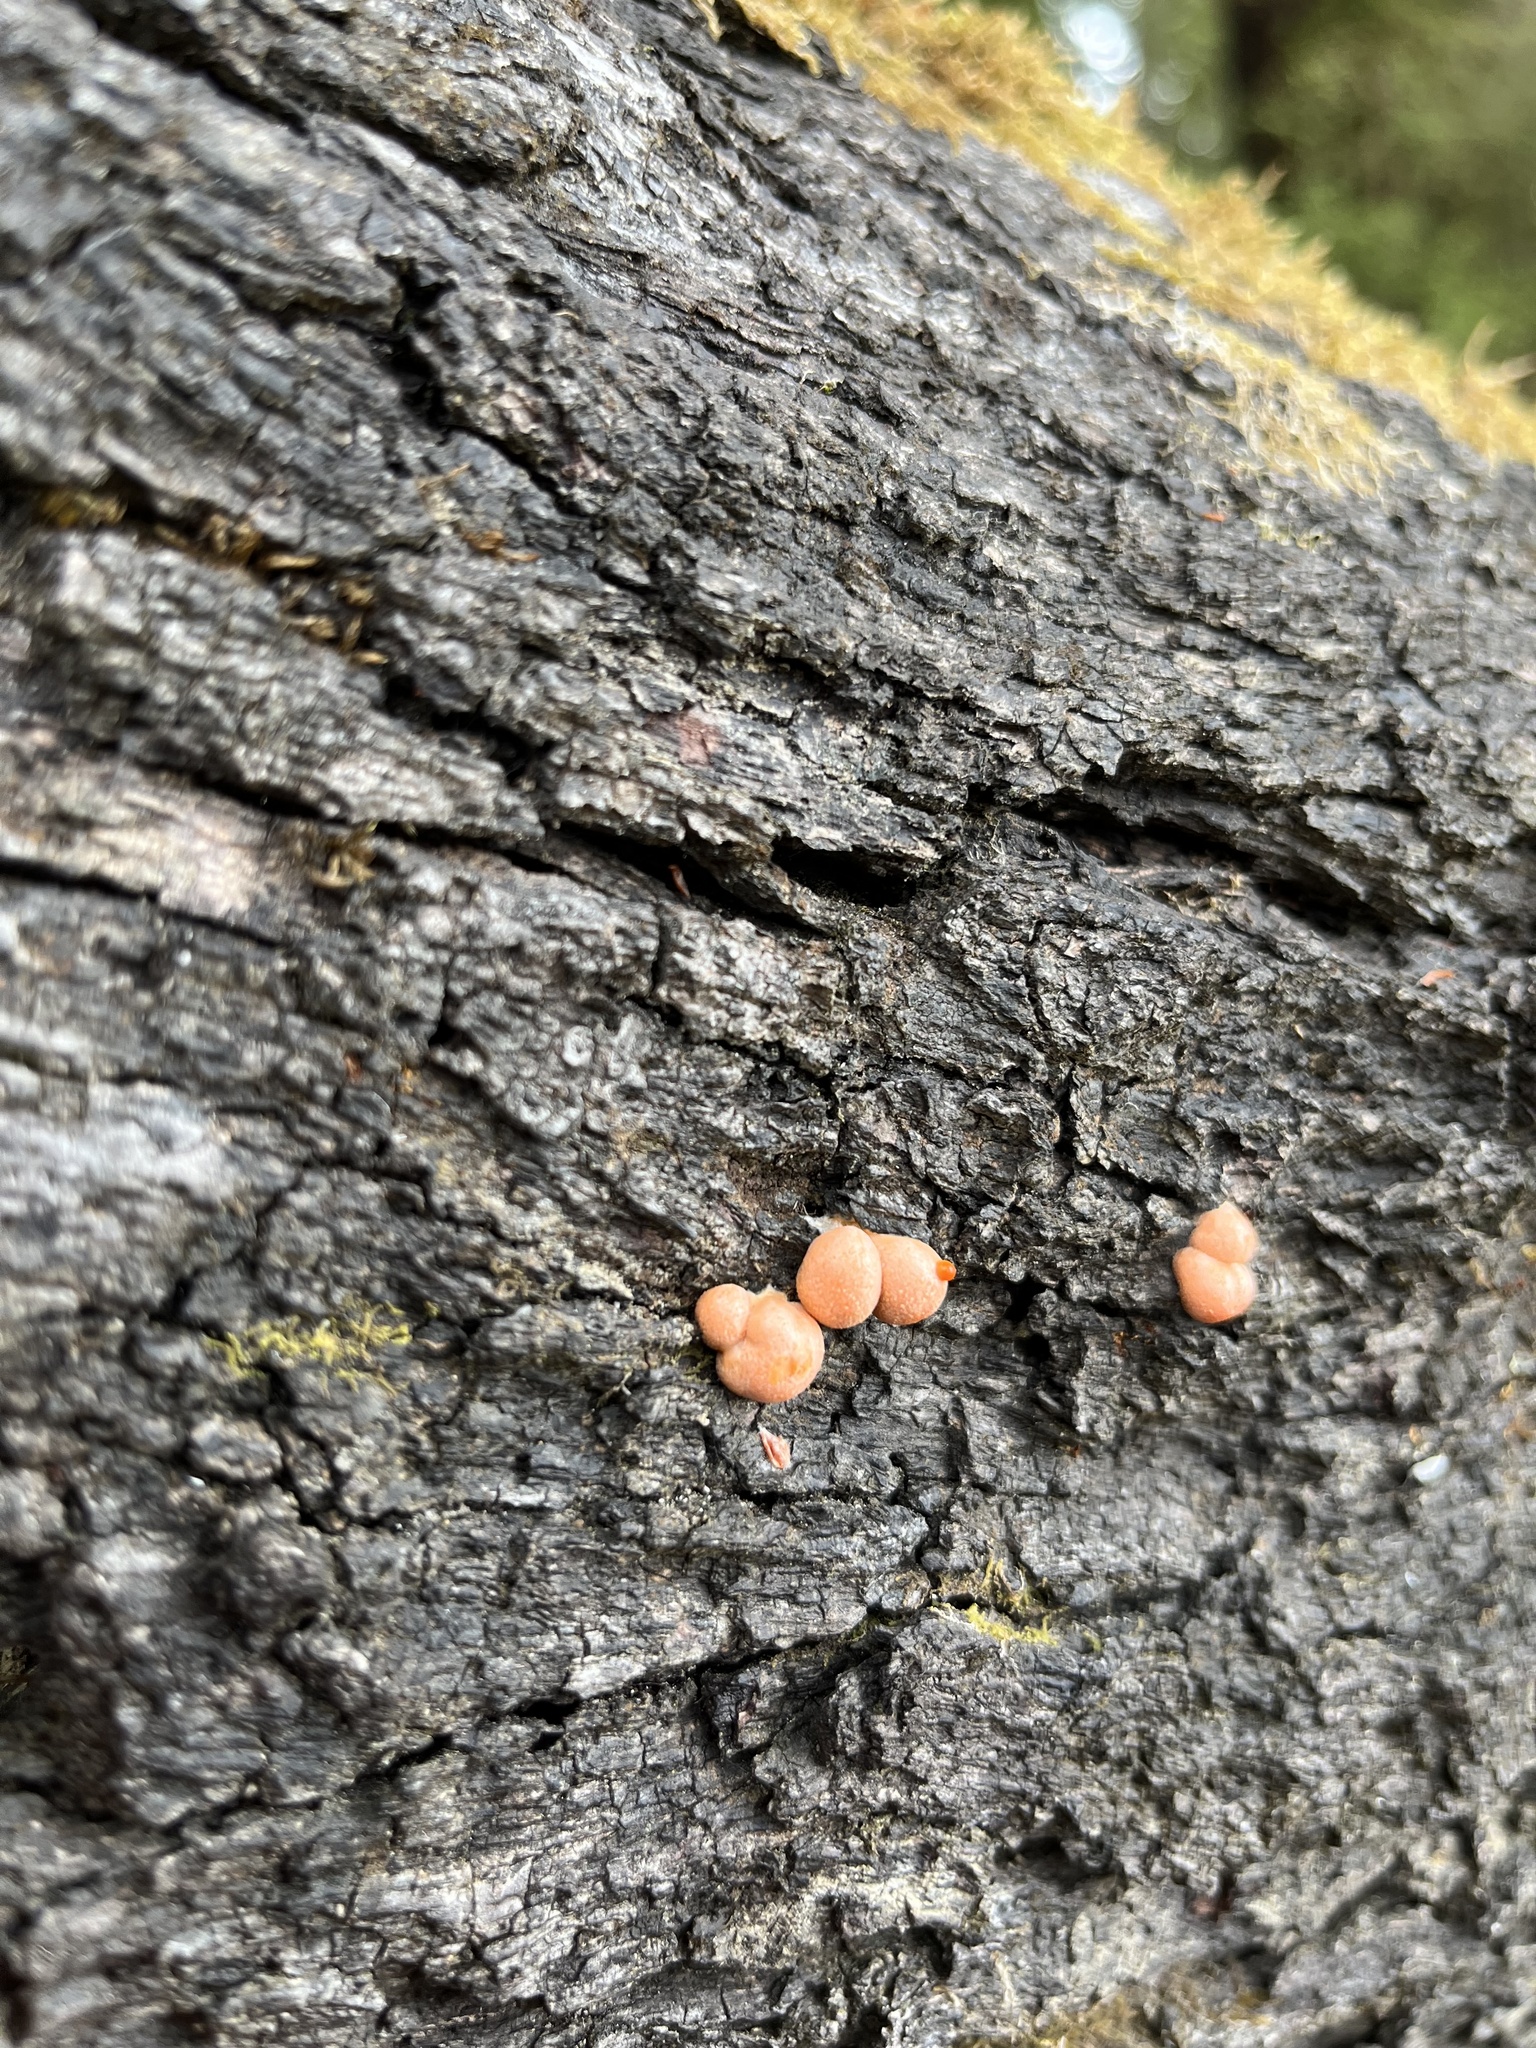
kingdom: Protozoa
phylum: Mycetozoa
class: Myxomycetes
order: Cribrariales
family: Tubiferaceae
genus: Lycogala
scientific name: Lycogala epidendrum
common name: Wolf's milk
